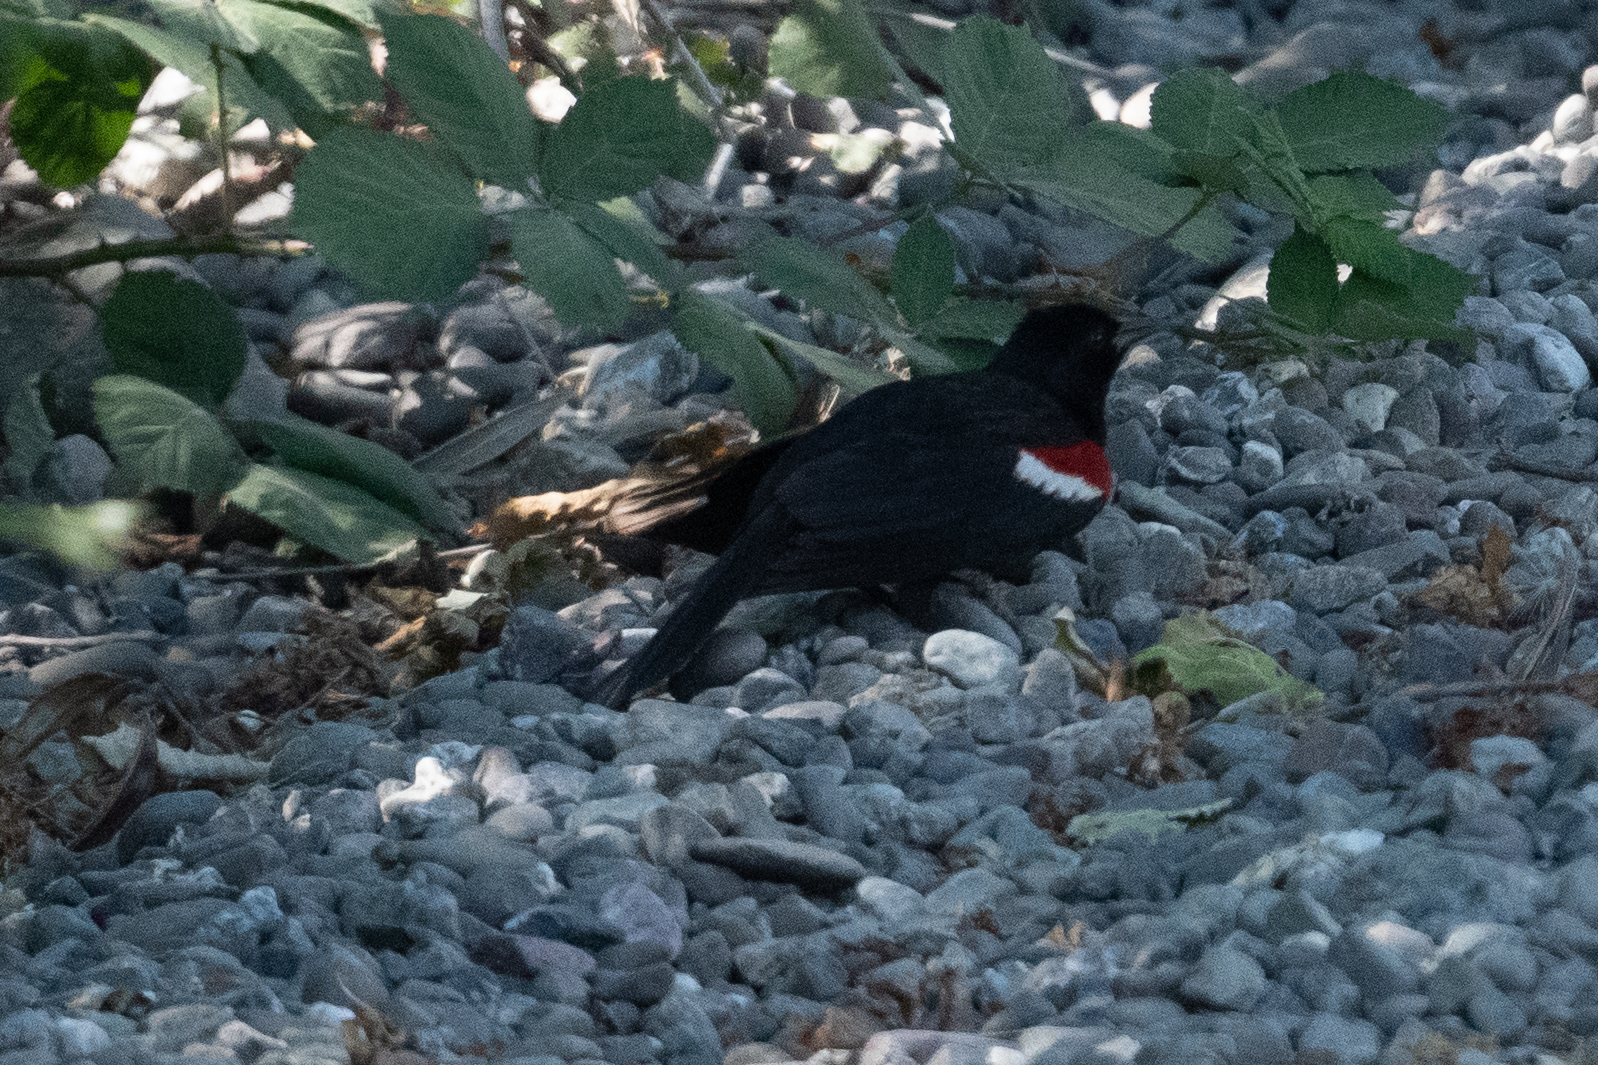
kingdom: Animalia
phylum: Chordata
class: Aves
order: Passeriformes
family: Icteridae
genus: Agelaius
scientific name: Agelaius tricolor
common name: Tricolored blackbird
